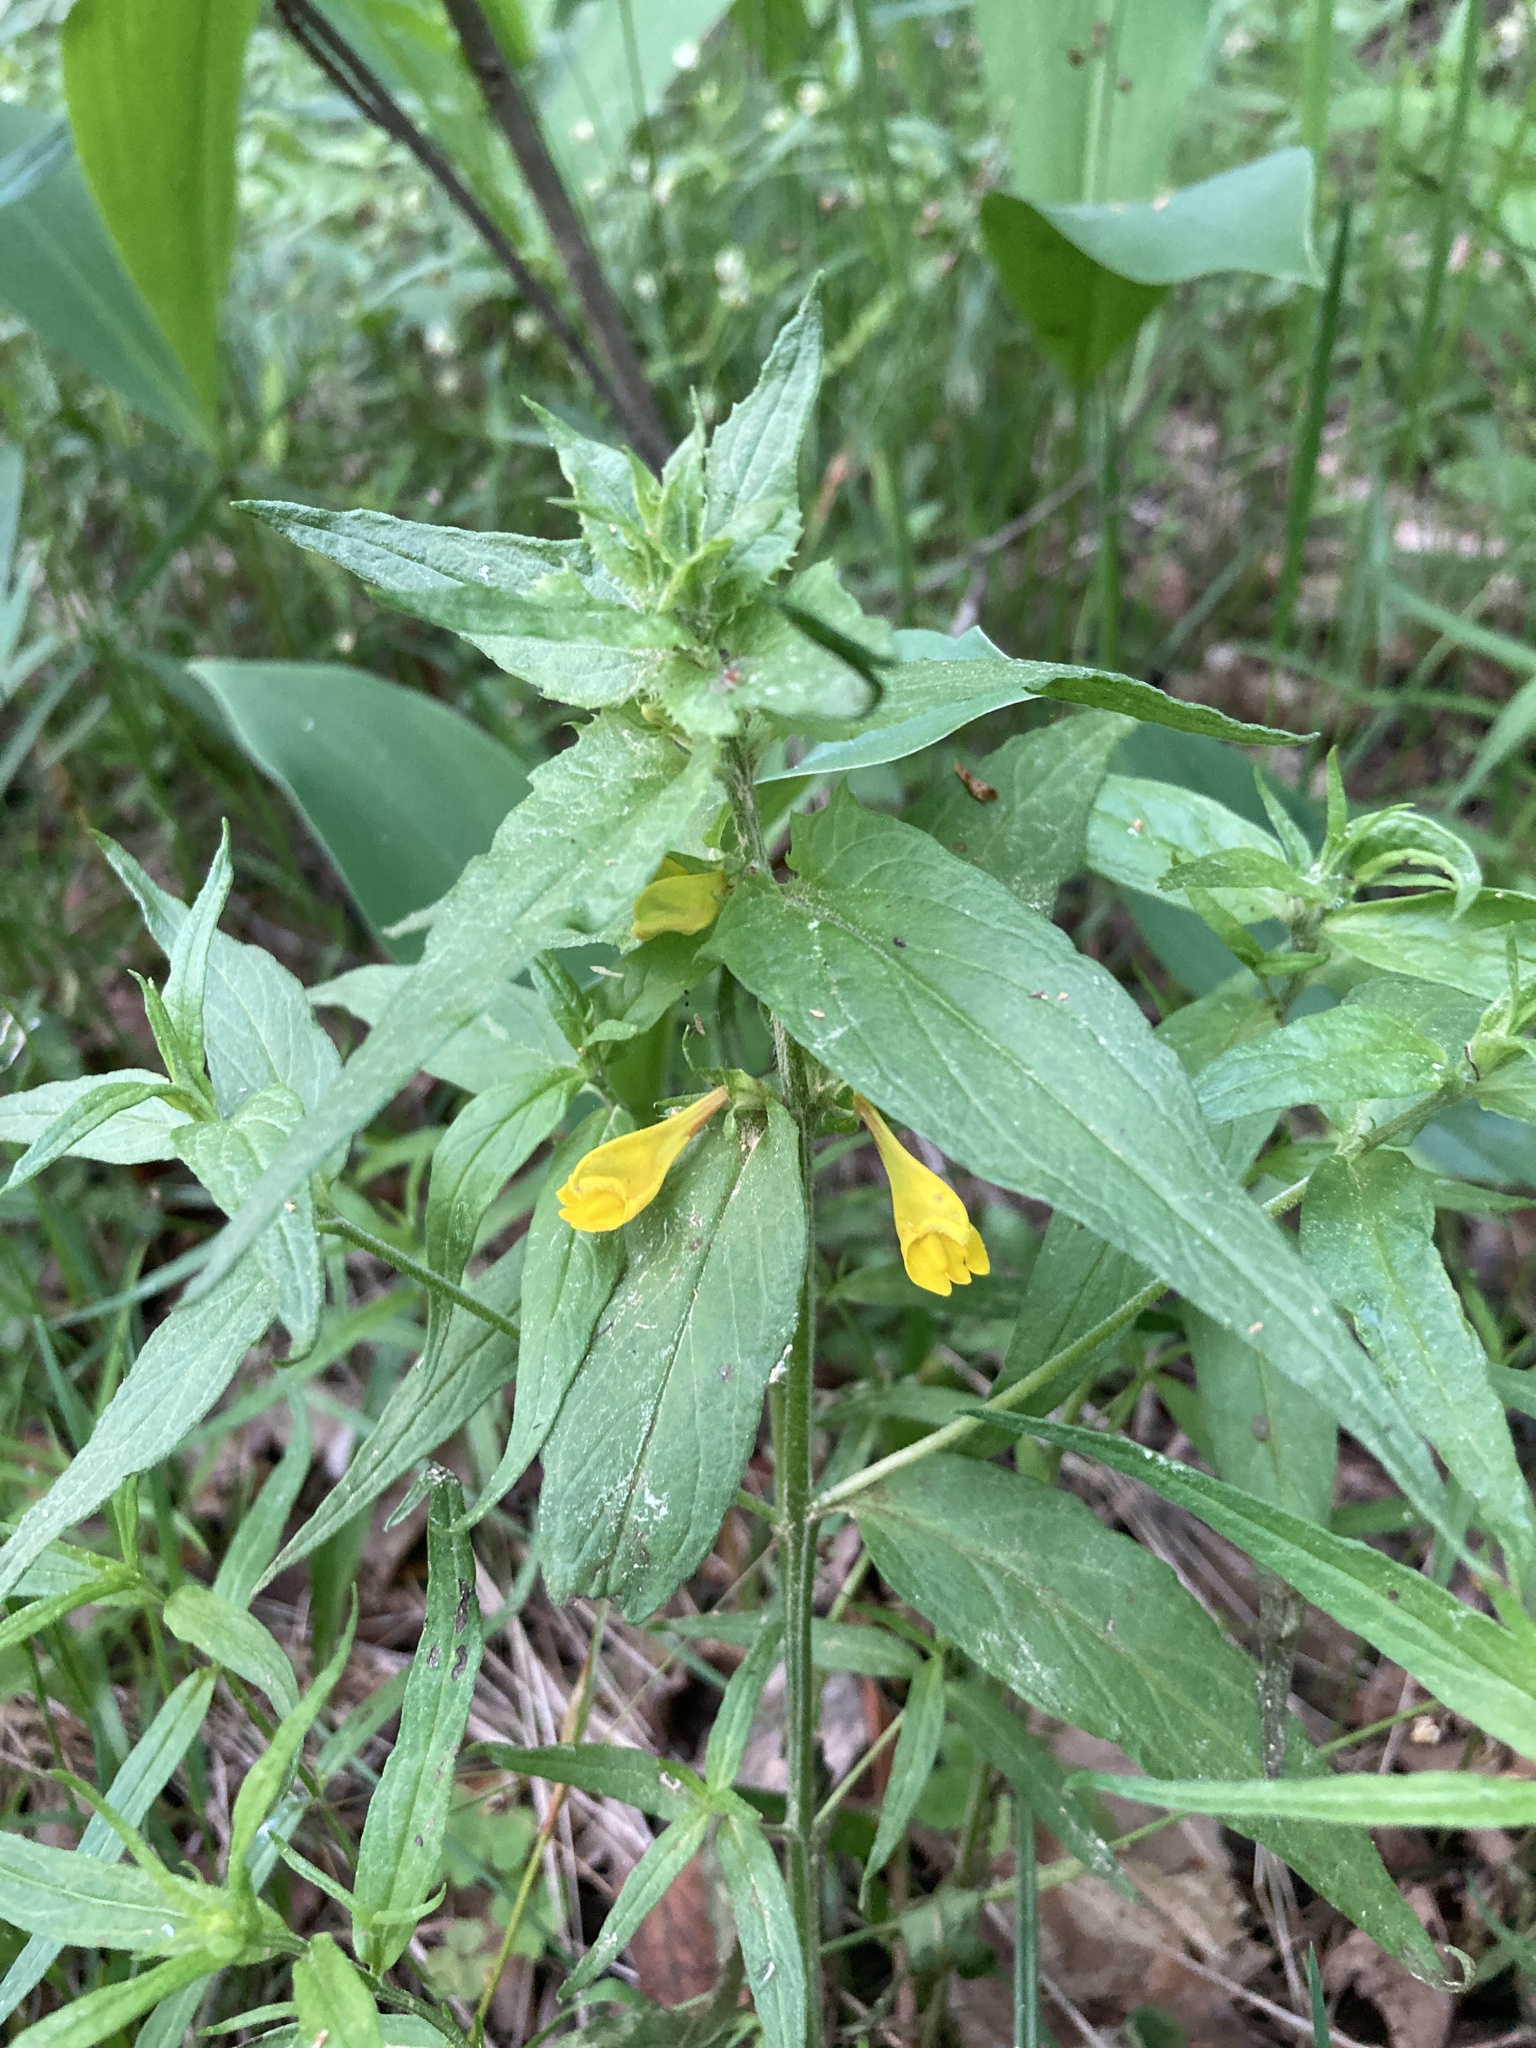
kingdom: Plantae
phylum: Tracheophyta
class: Magnoliopsida
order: Lamiales
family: Orobanchaceae
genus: Melampyrum
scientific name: Melampyrum nemorosum
